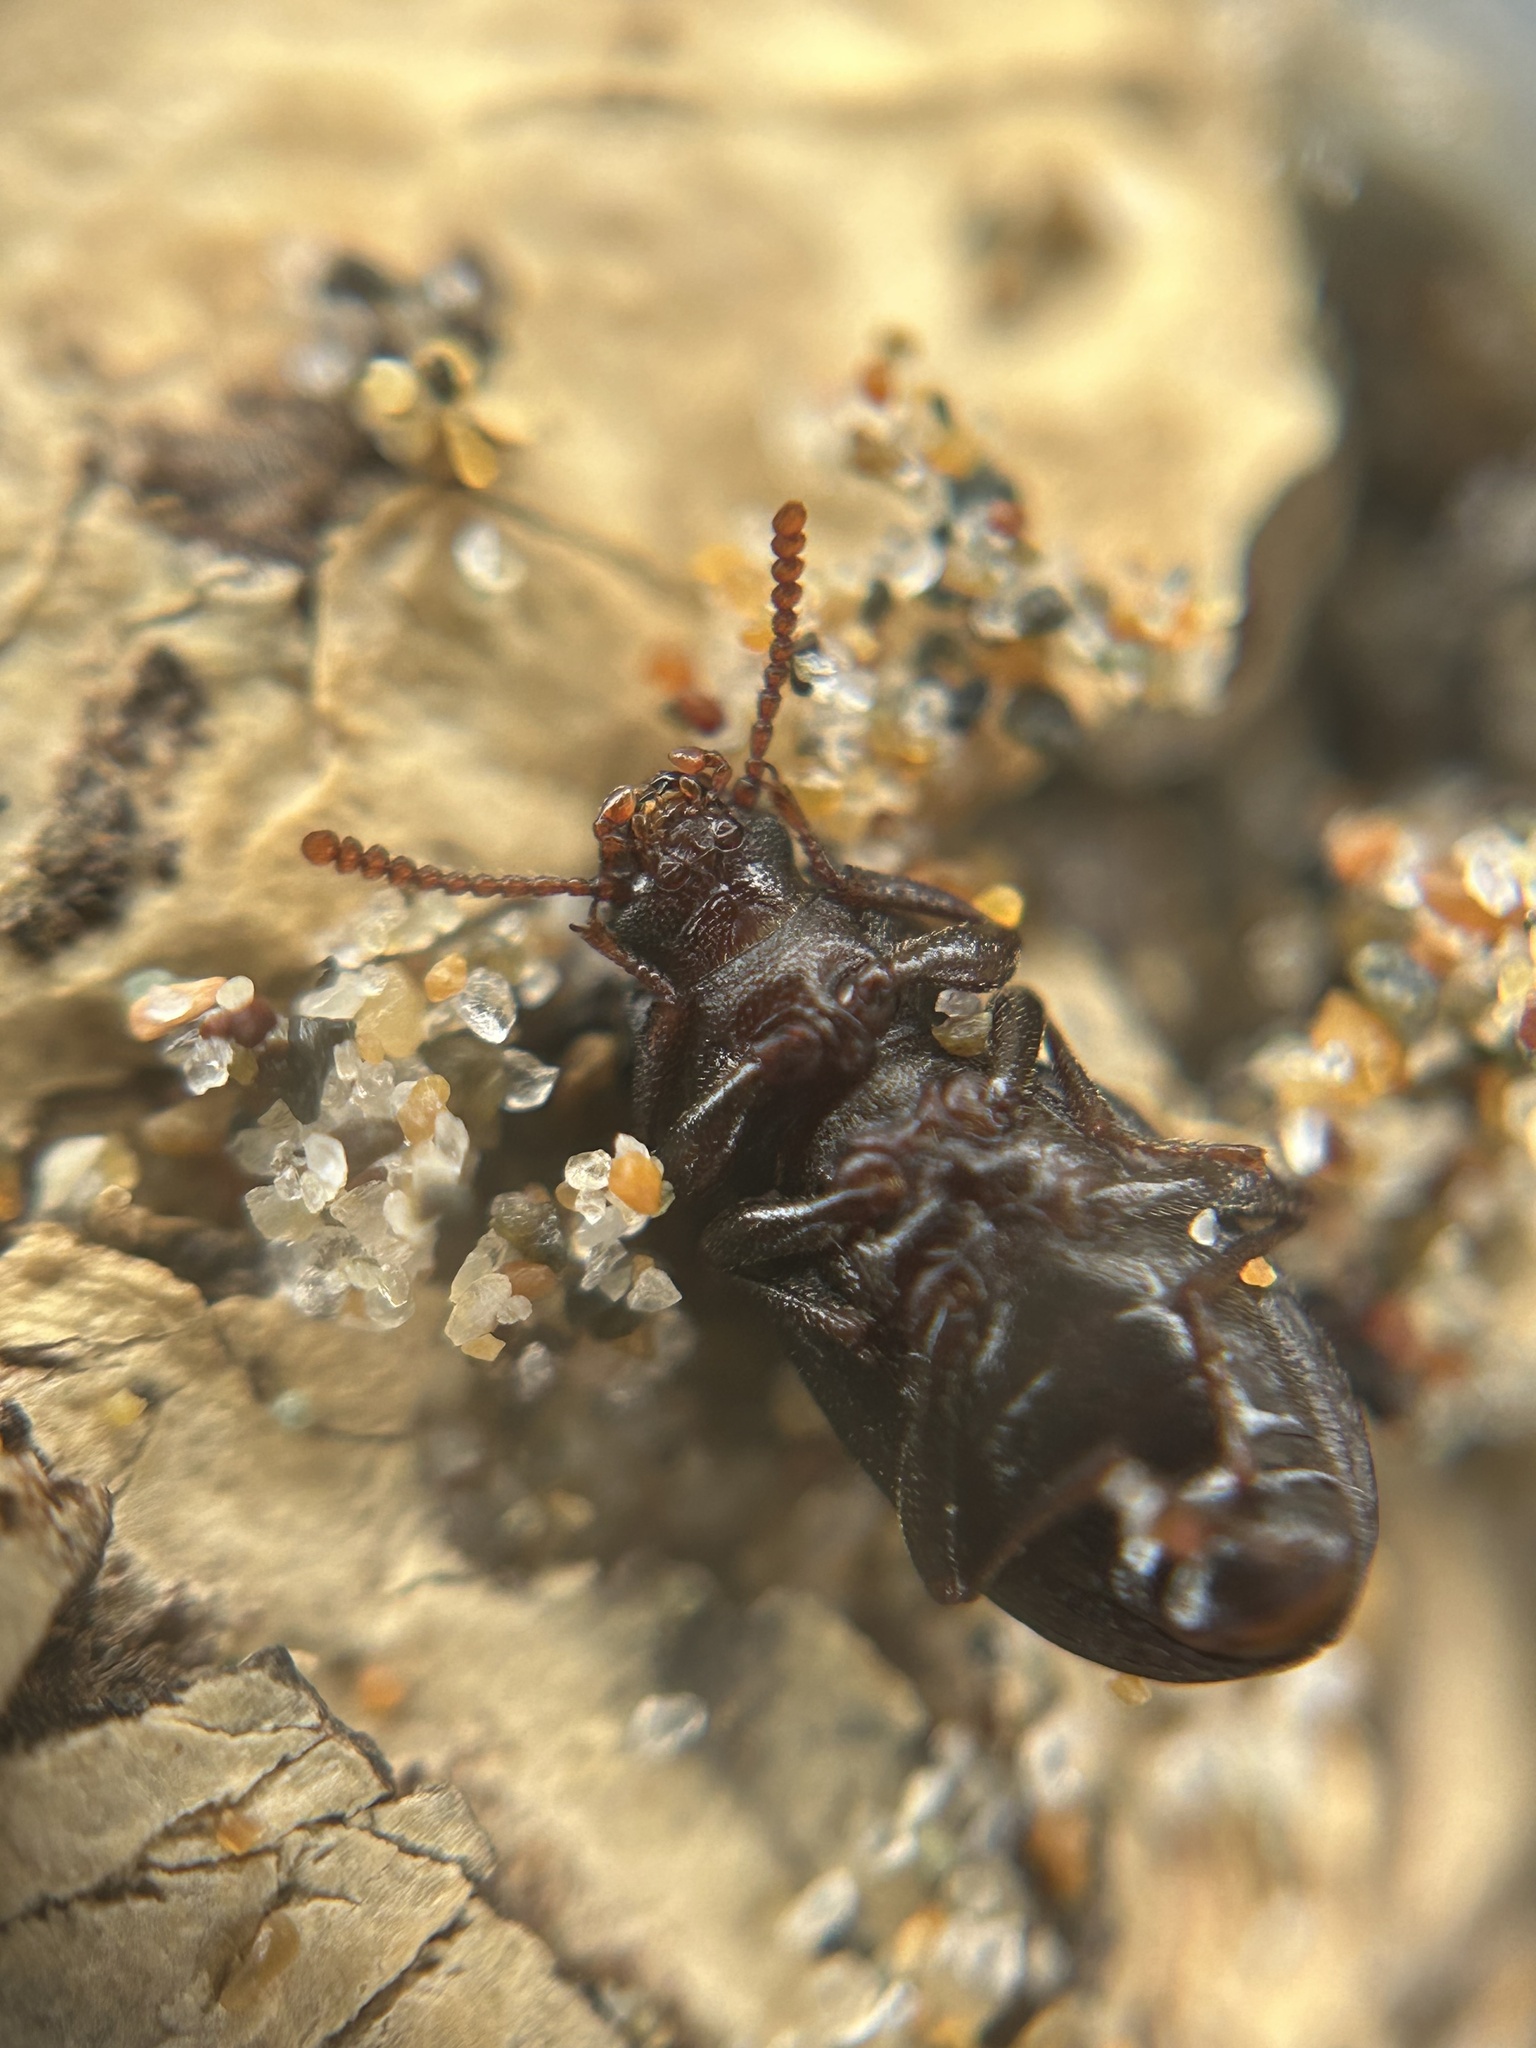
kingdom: Animalia
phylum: Arthropoda
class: Insecta
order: Coleoptera
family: Tenebrionidae
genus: Epantius
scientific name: Epantius obscurus
